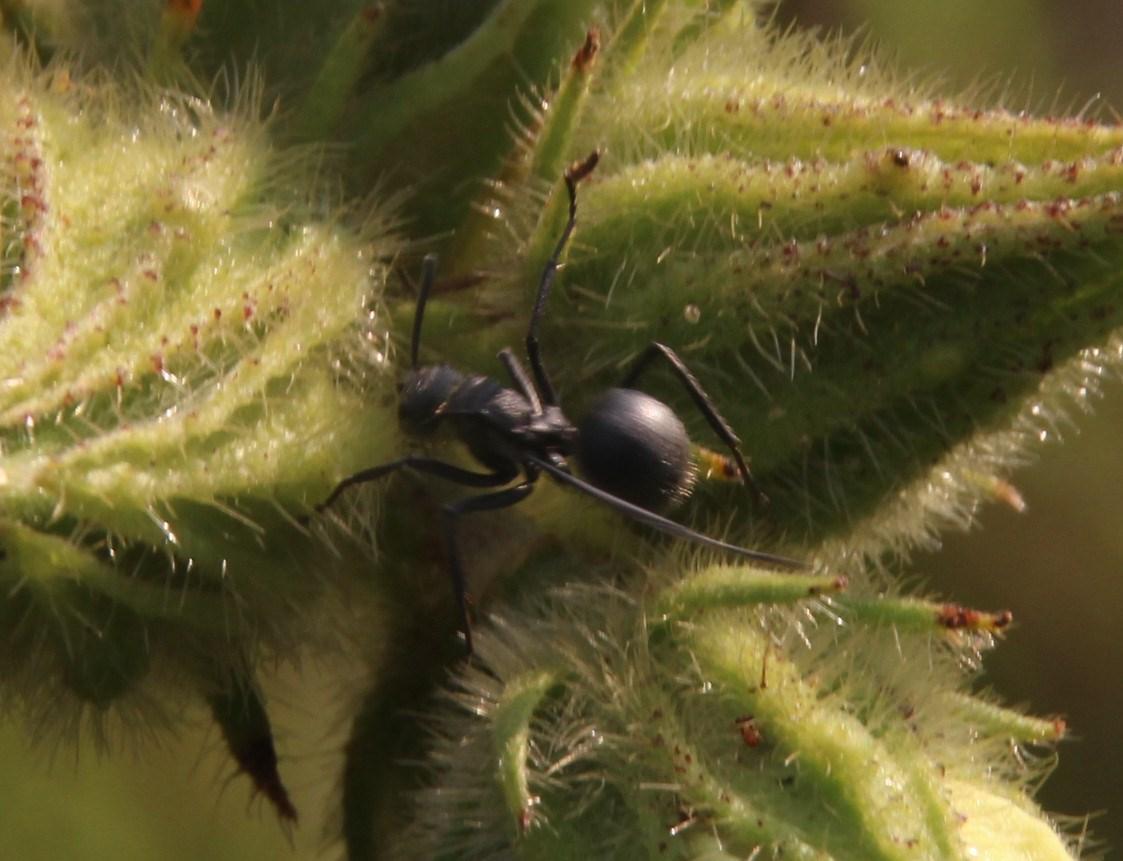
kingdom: Animalia
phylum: Arthropoda
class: Insecta
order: Hymenoptera
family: Formicidae
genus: Polyrhachis
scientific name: Polyrhachis schistacea
